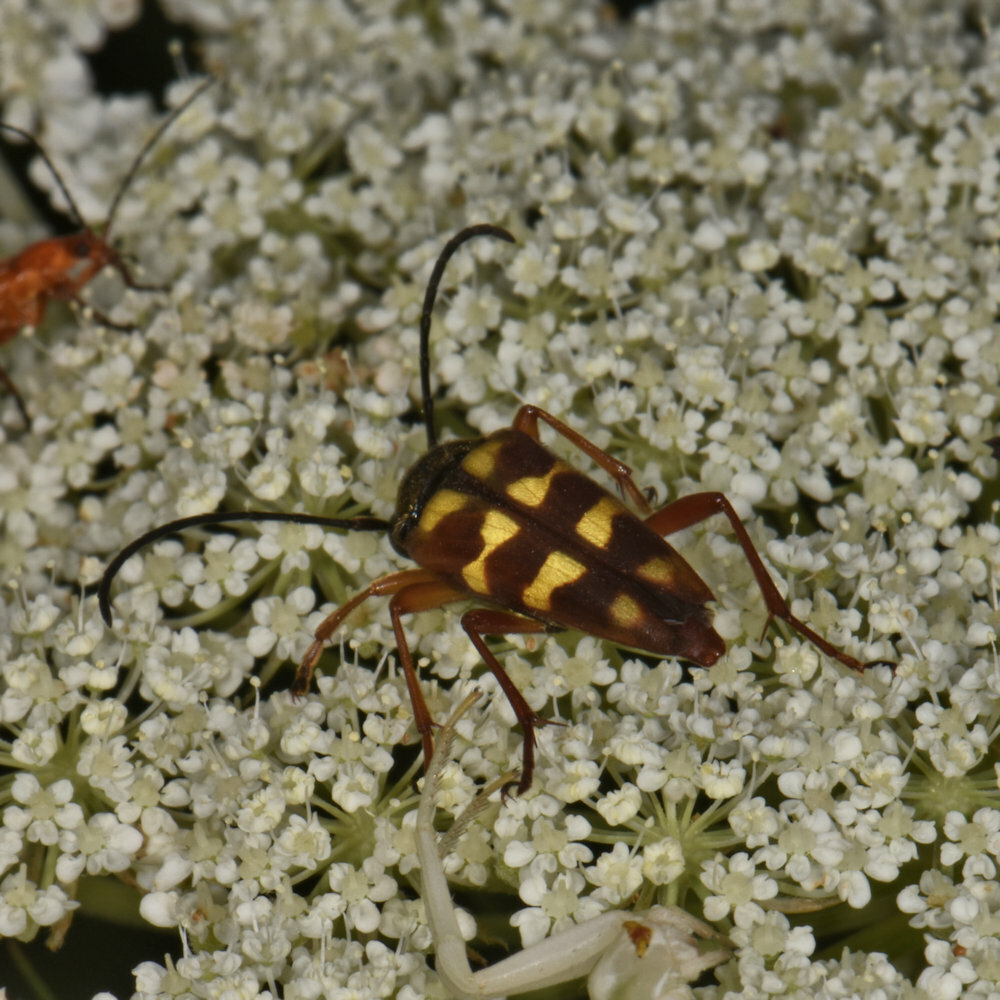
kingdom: Animalia
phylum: Arthropoda
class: Insecta
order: Coleoptera
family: Cerambycidae
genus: Typocerus
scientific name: Typocerus velutinus
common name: Banded longhorn beetle
